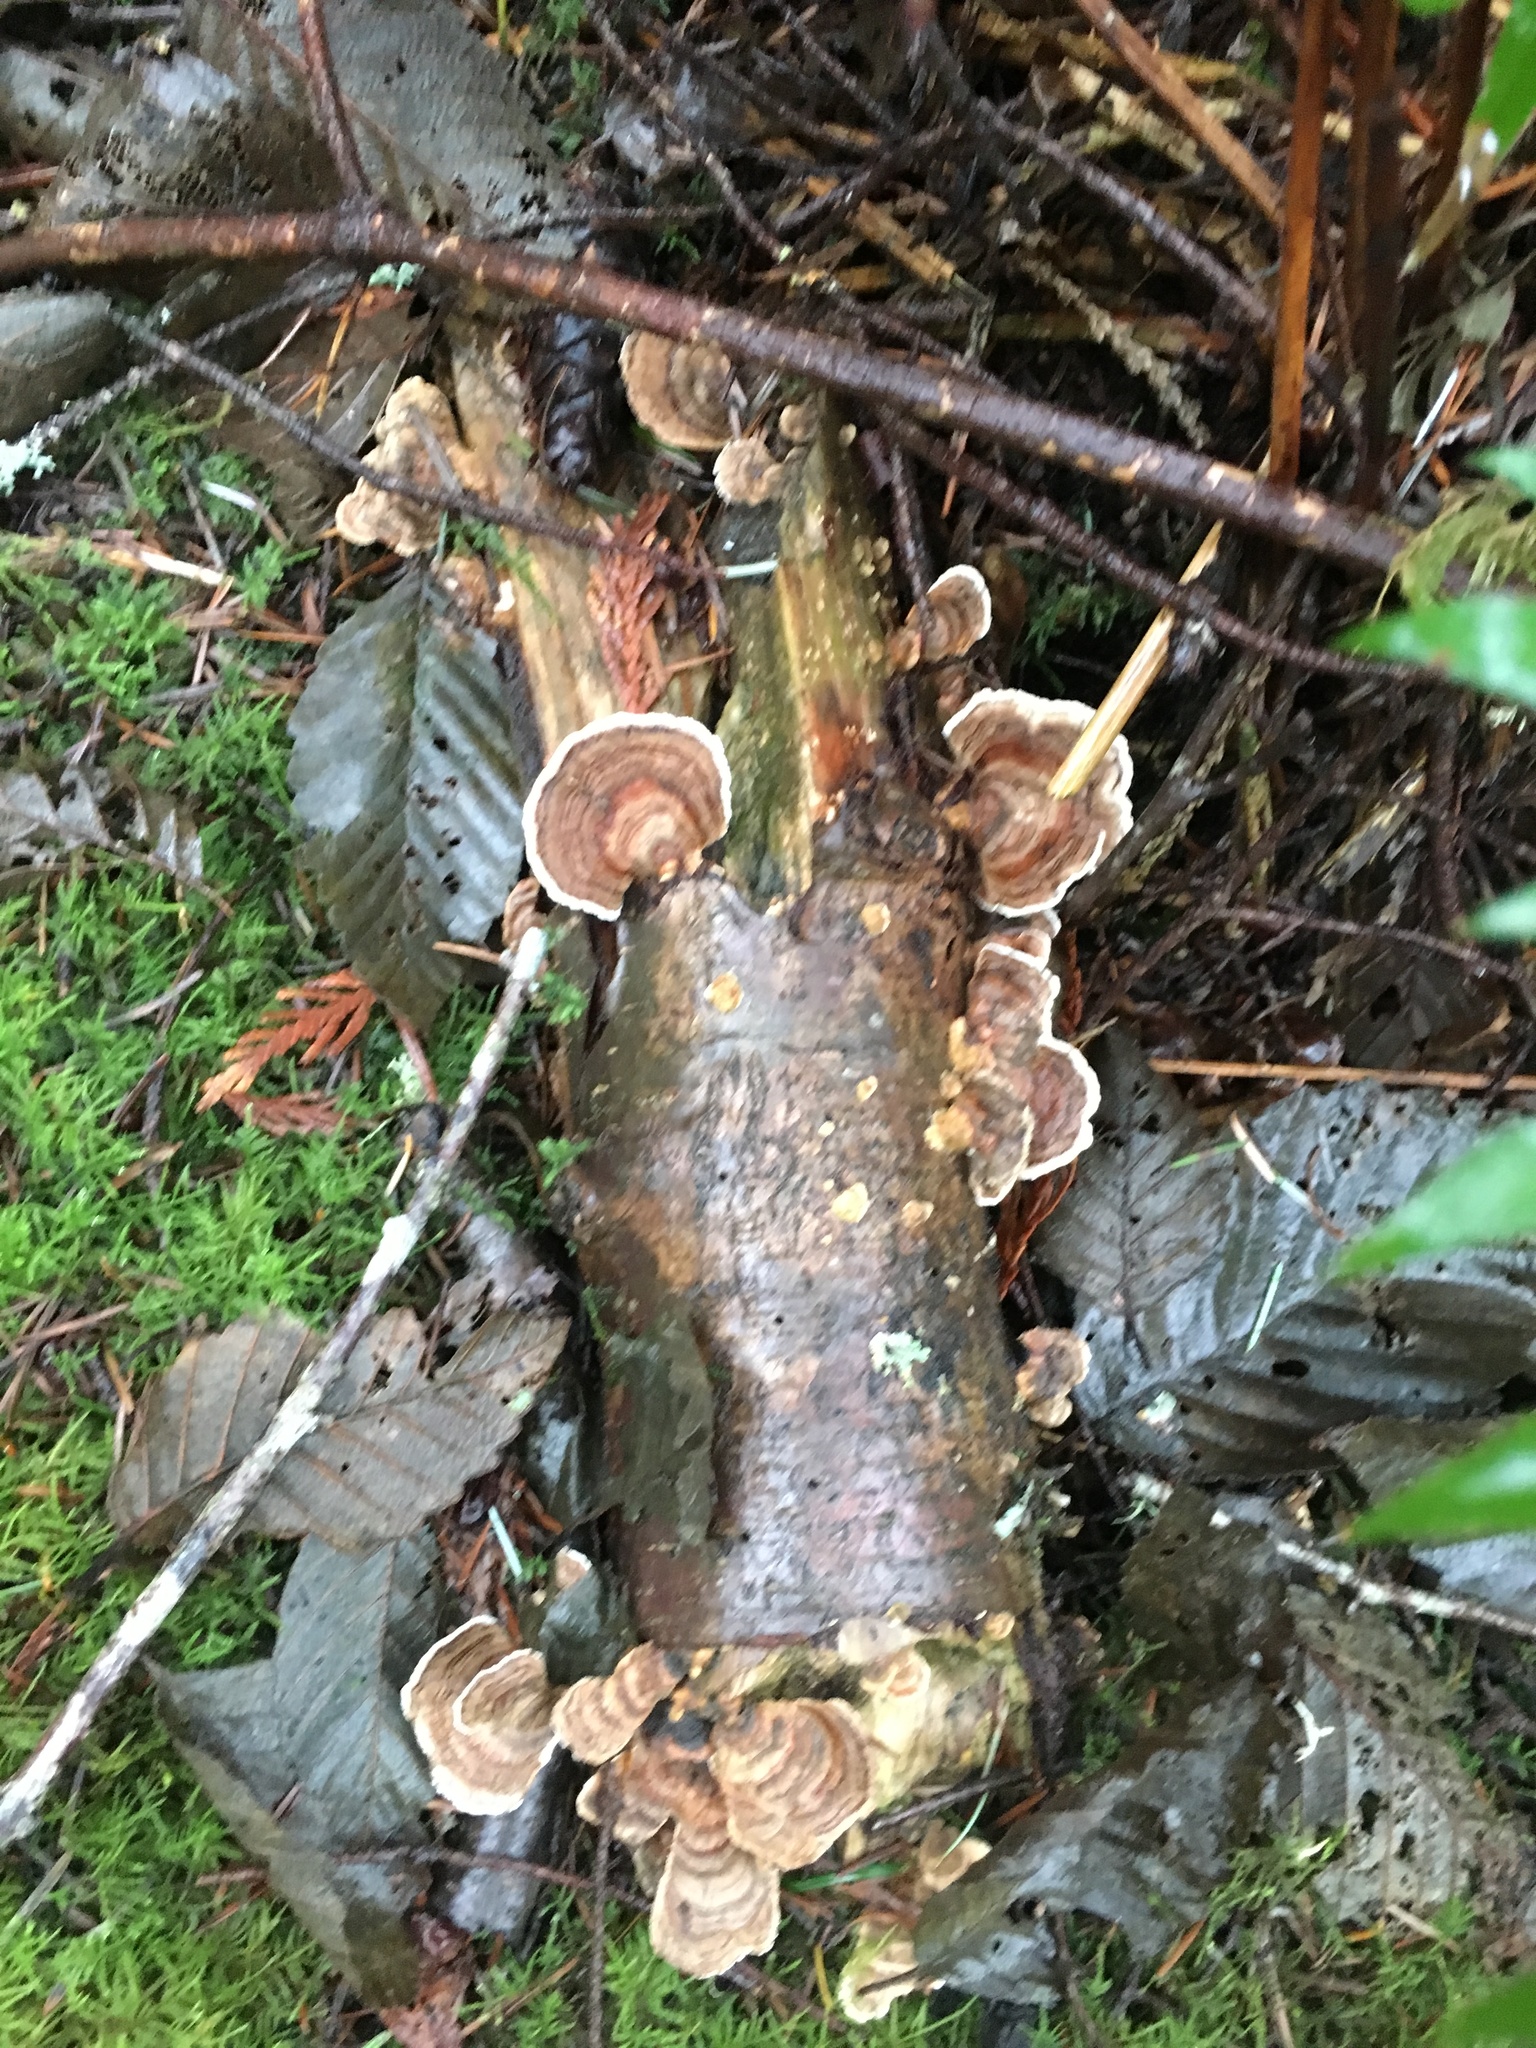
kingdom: Fungi
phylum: Basidiomycota
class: Agaricomycetes
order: Polyporales
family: Polyporaceae
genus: Trametes
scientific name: Trametes versicolor
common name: Turkeytail
